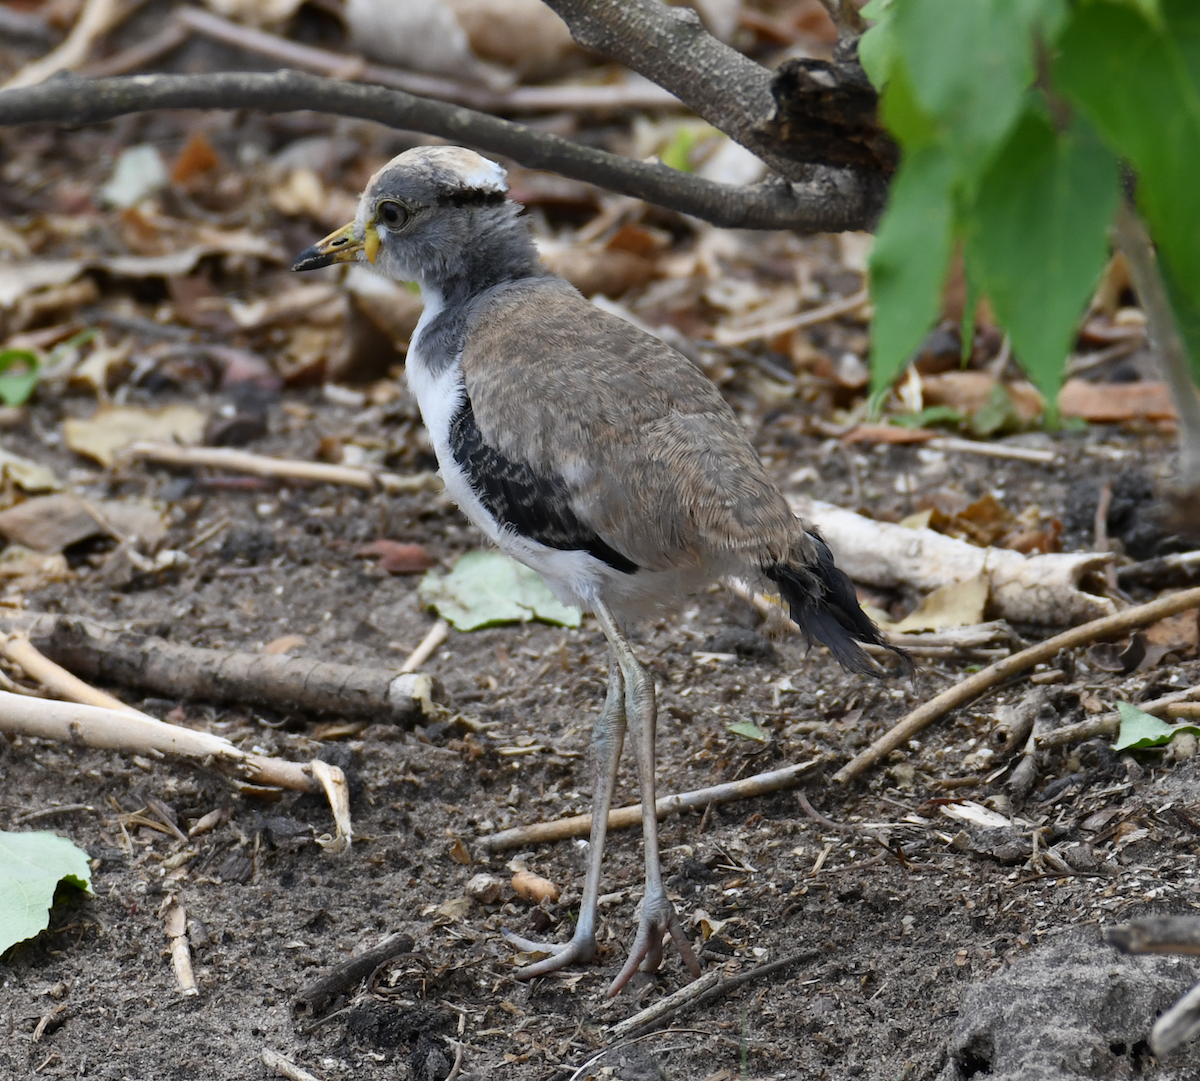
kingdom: Animalia
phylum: Chordata
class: Aves
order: Charadriiformes
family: Charadriidae
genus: Vanellus
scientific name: Vanellus albiceps
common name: White-crowned lapwing
